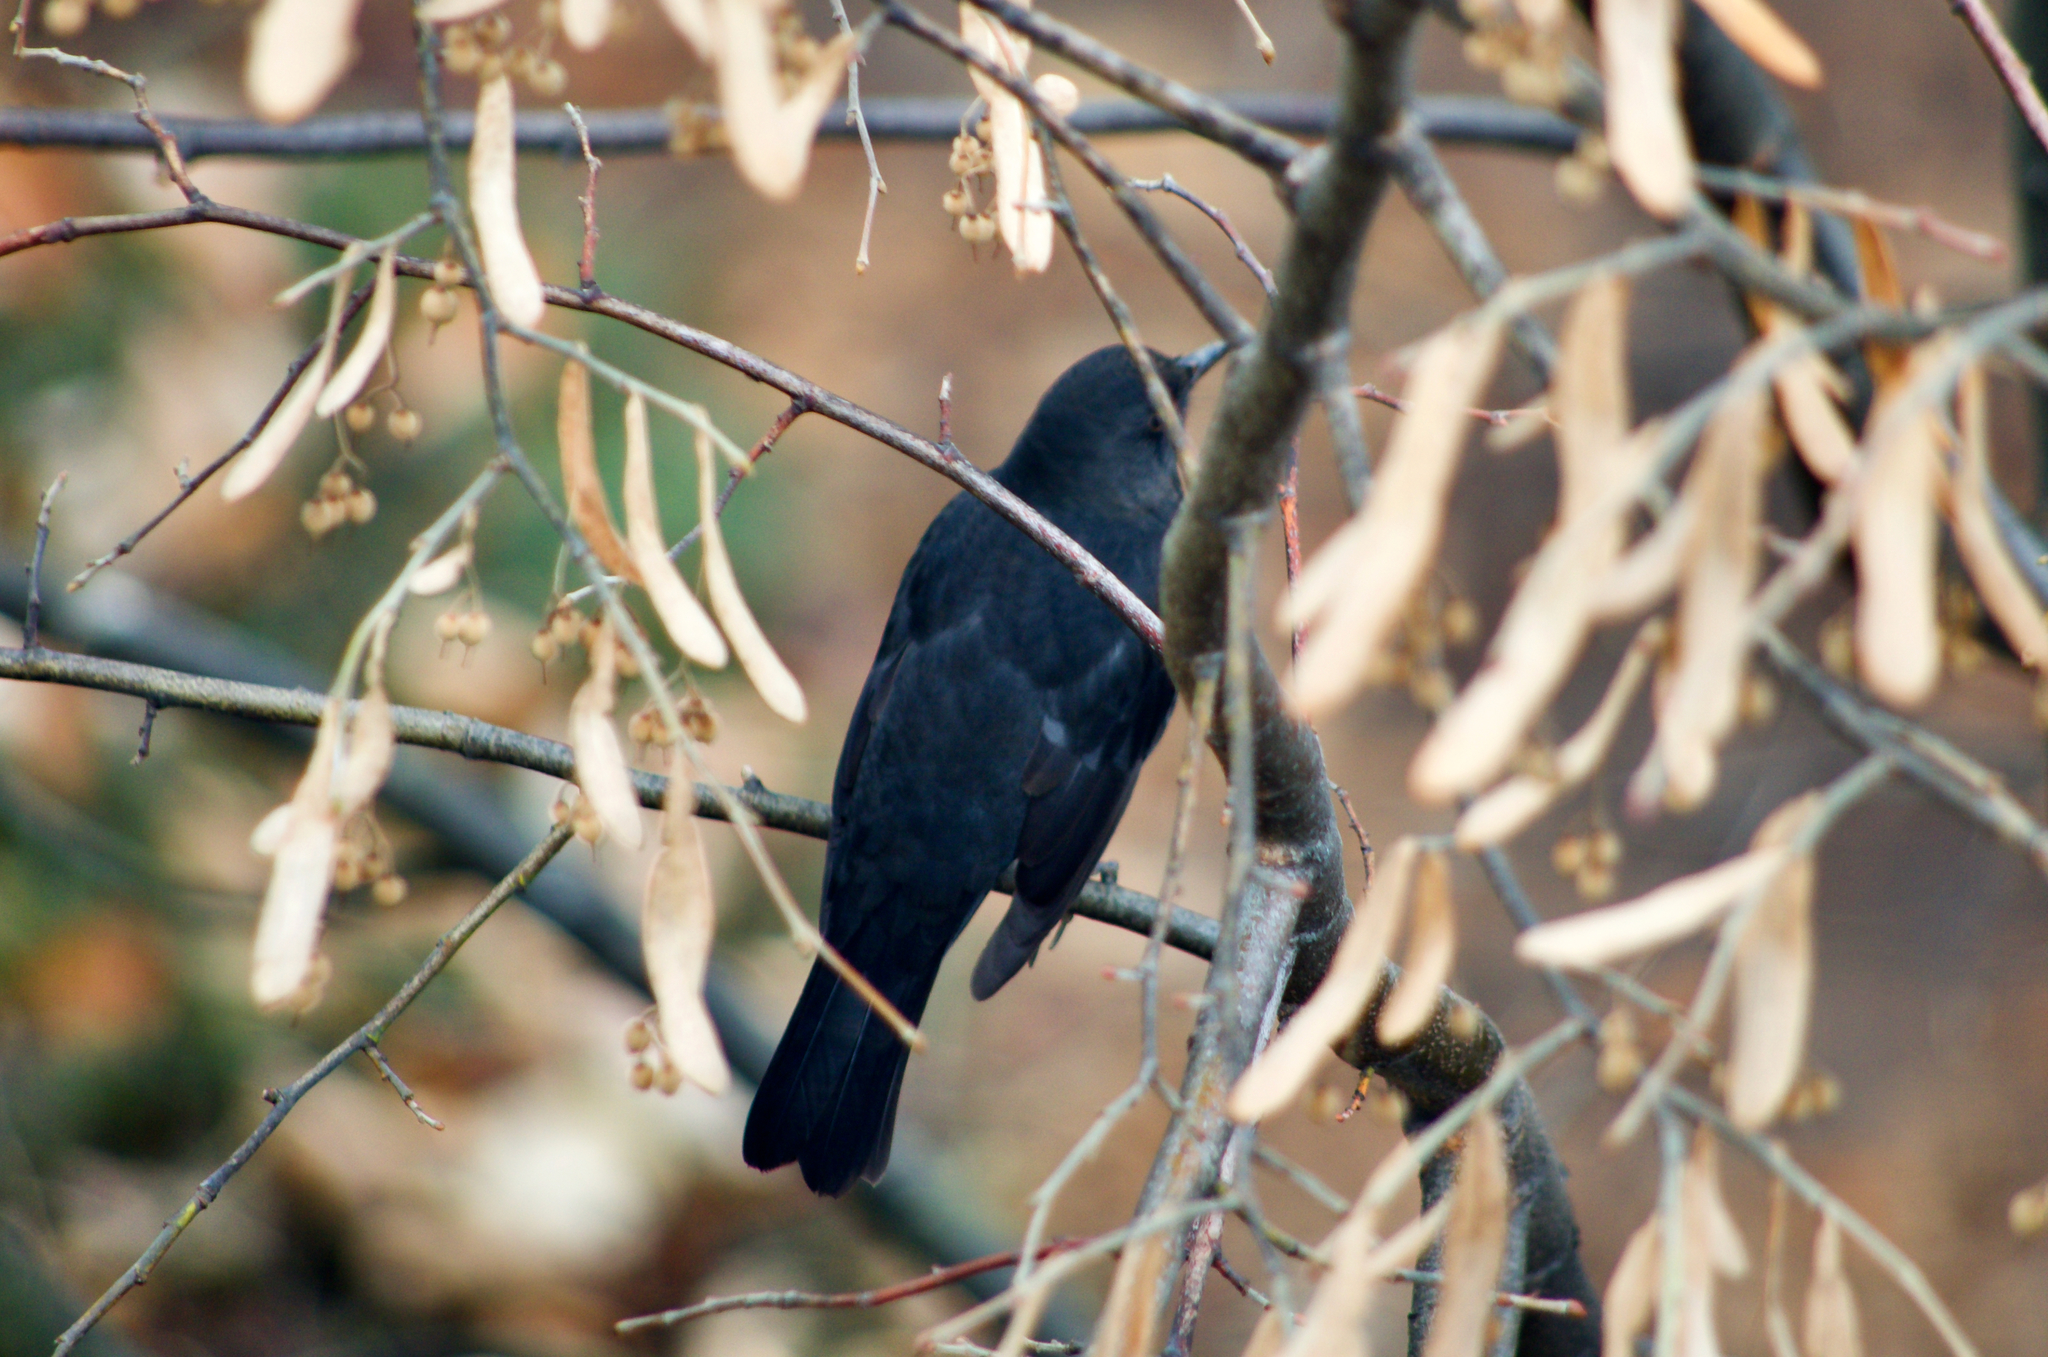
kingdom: Animalia
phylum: Chordata
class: Aves
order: Passeriformes
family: Turdidae
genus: Turdus
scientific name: Turdus merula
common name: Common blackbird
